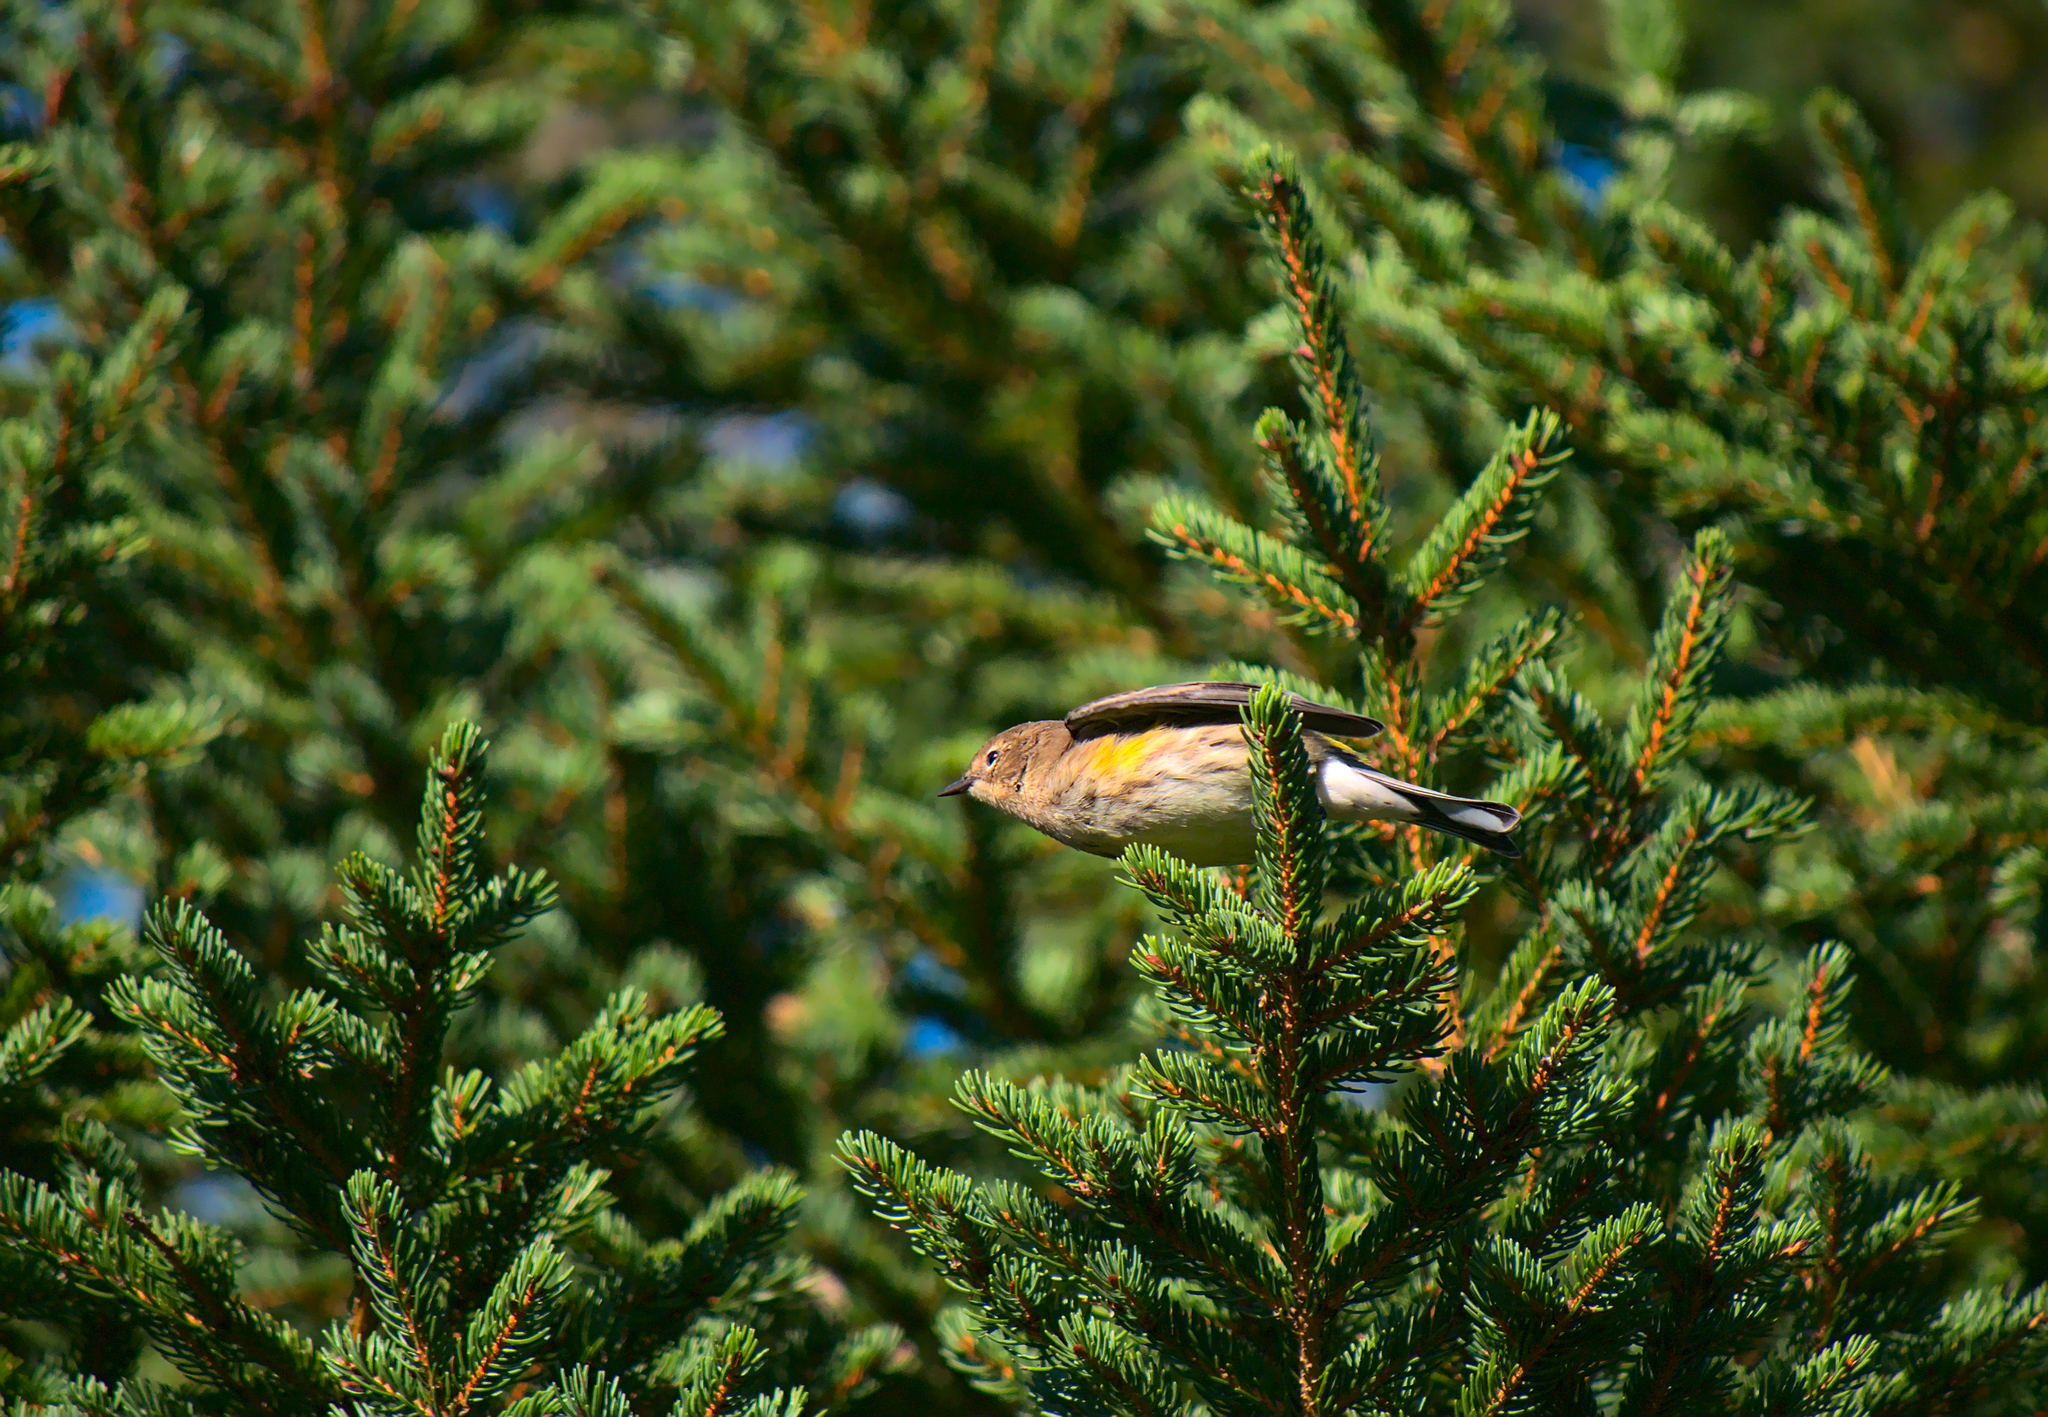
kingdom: Animalia
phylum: Chordata
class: Aves
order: Passeriformes
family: Parulidae
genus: Setophaga
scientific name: Setophaga coronata
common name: Myrtle warbler
